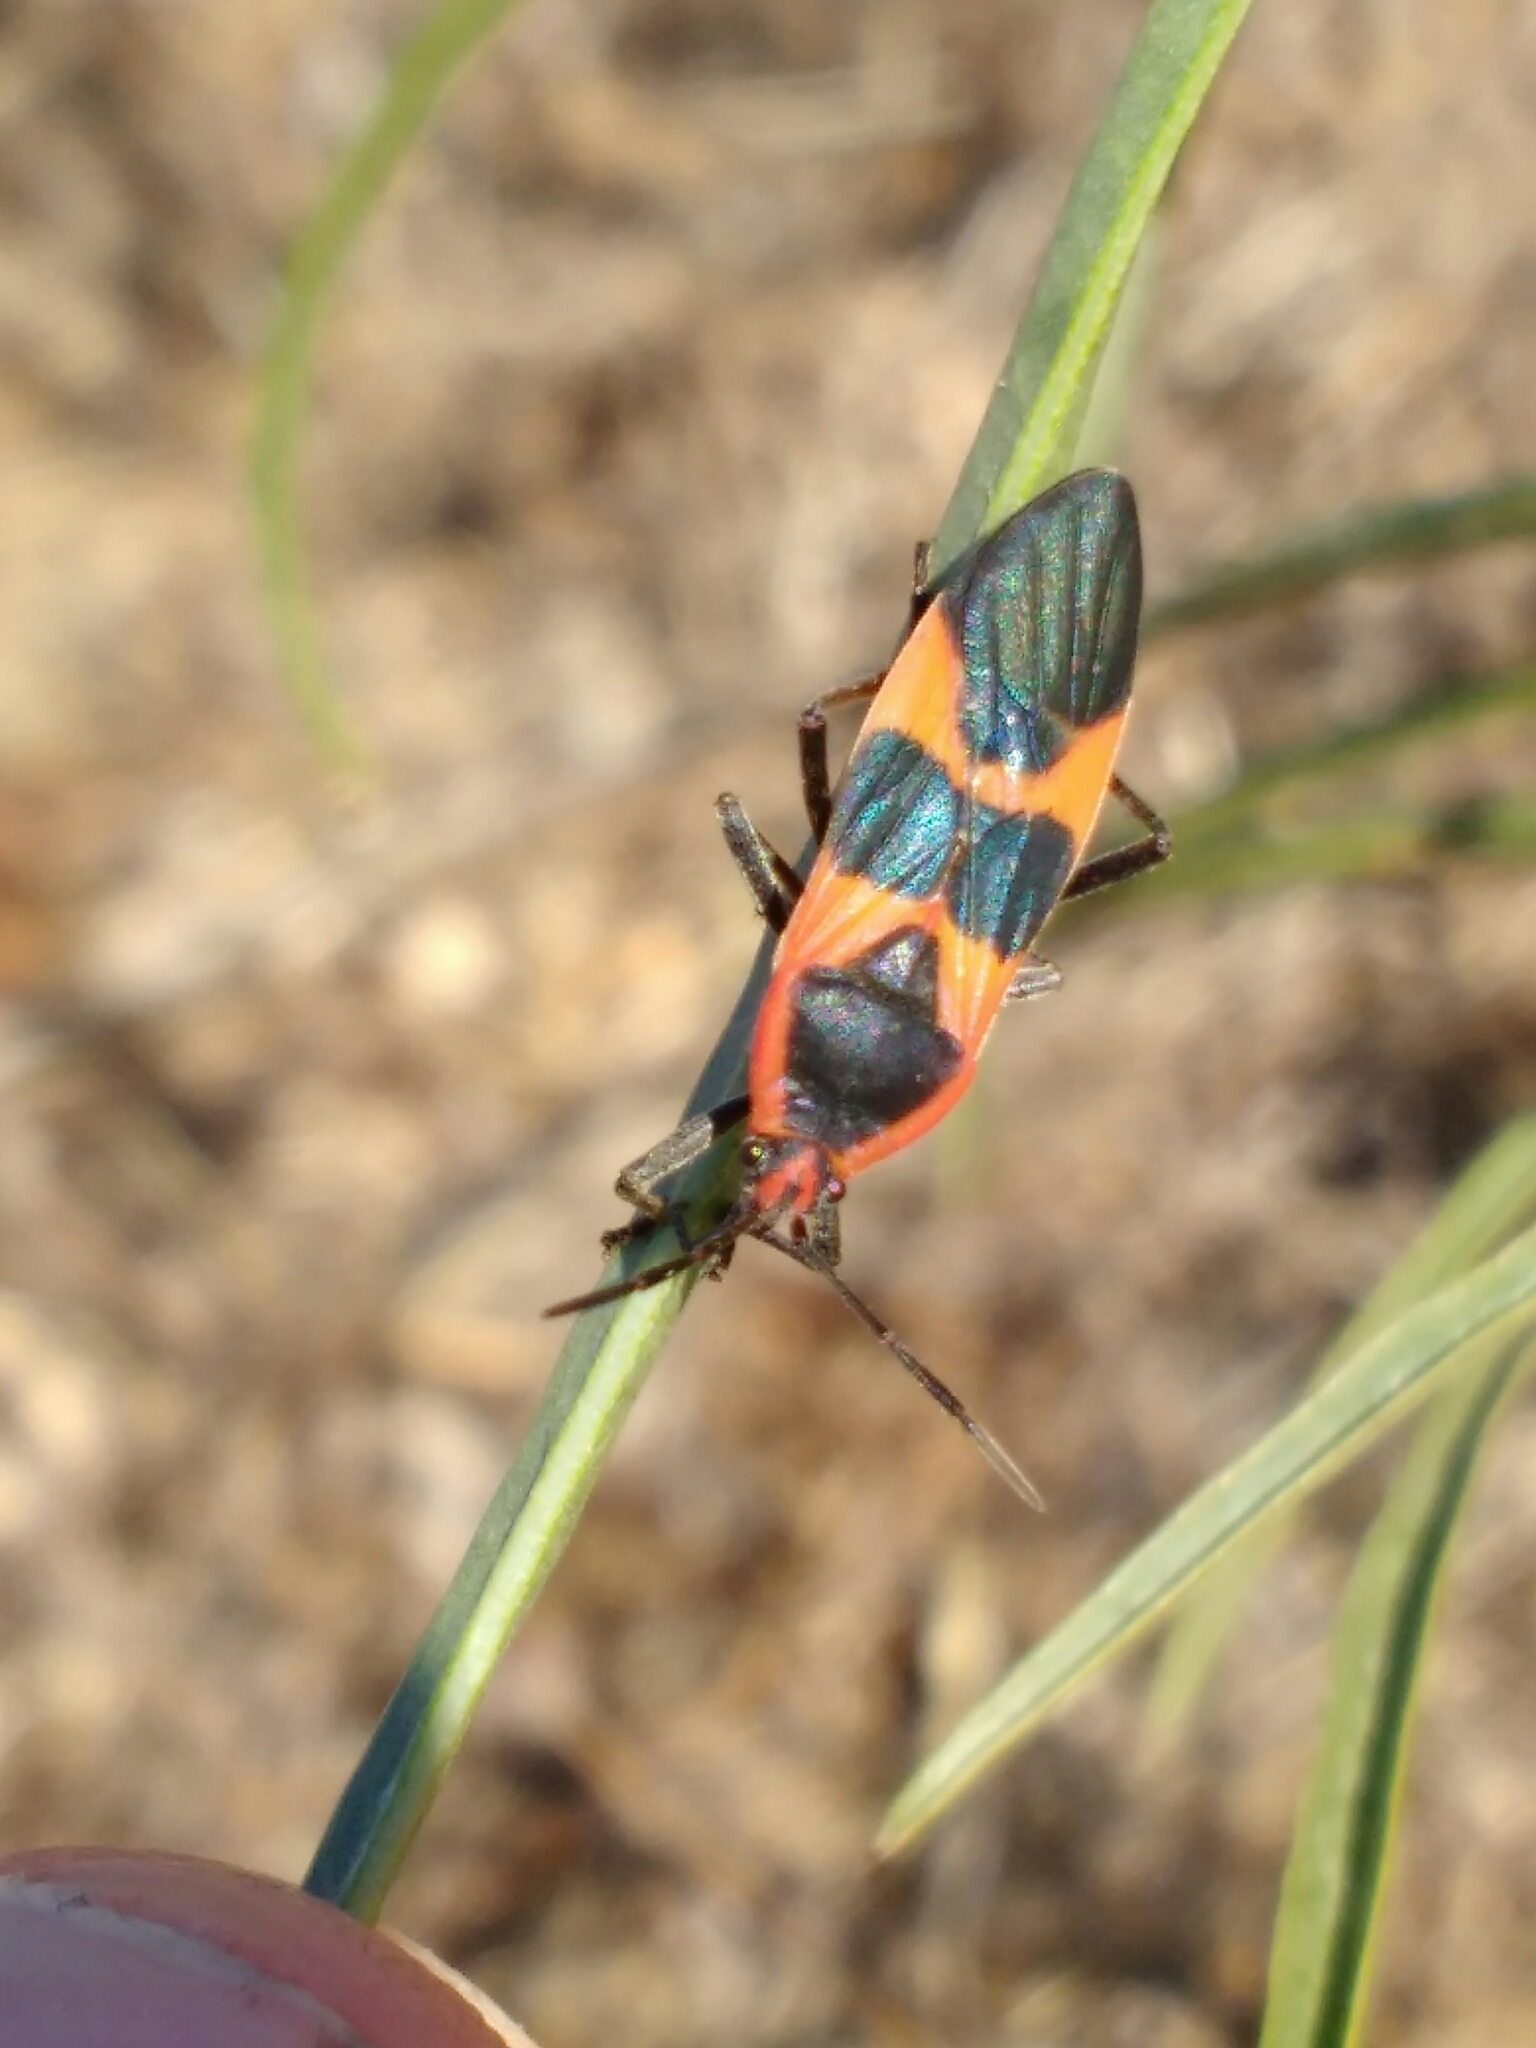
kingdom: Animalia
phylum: Arthropoda
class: Insecta
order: Hemiptera
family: Lygaeidae
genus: Oncopeltus
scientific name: Oncopeltus fasciatus
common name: Large milkweed bug
